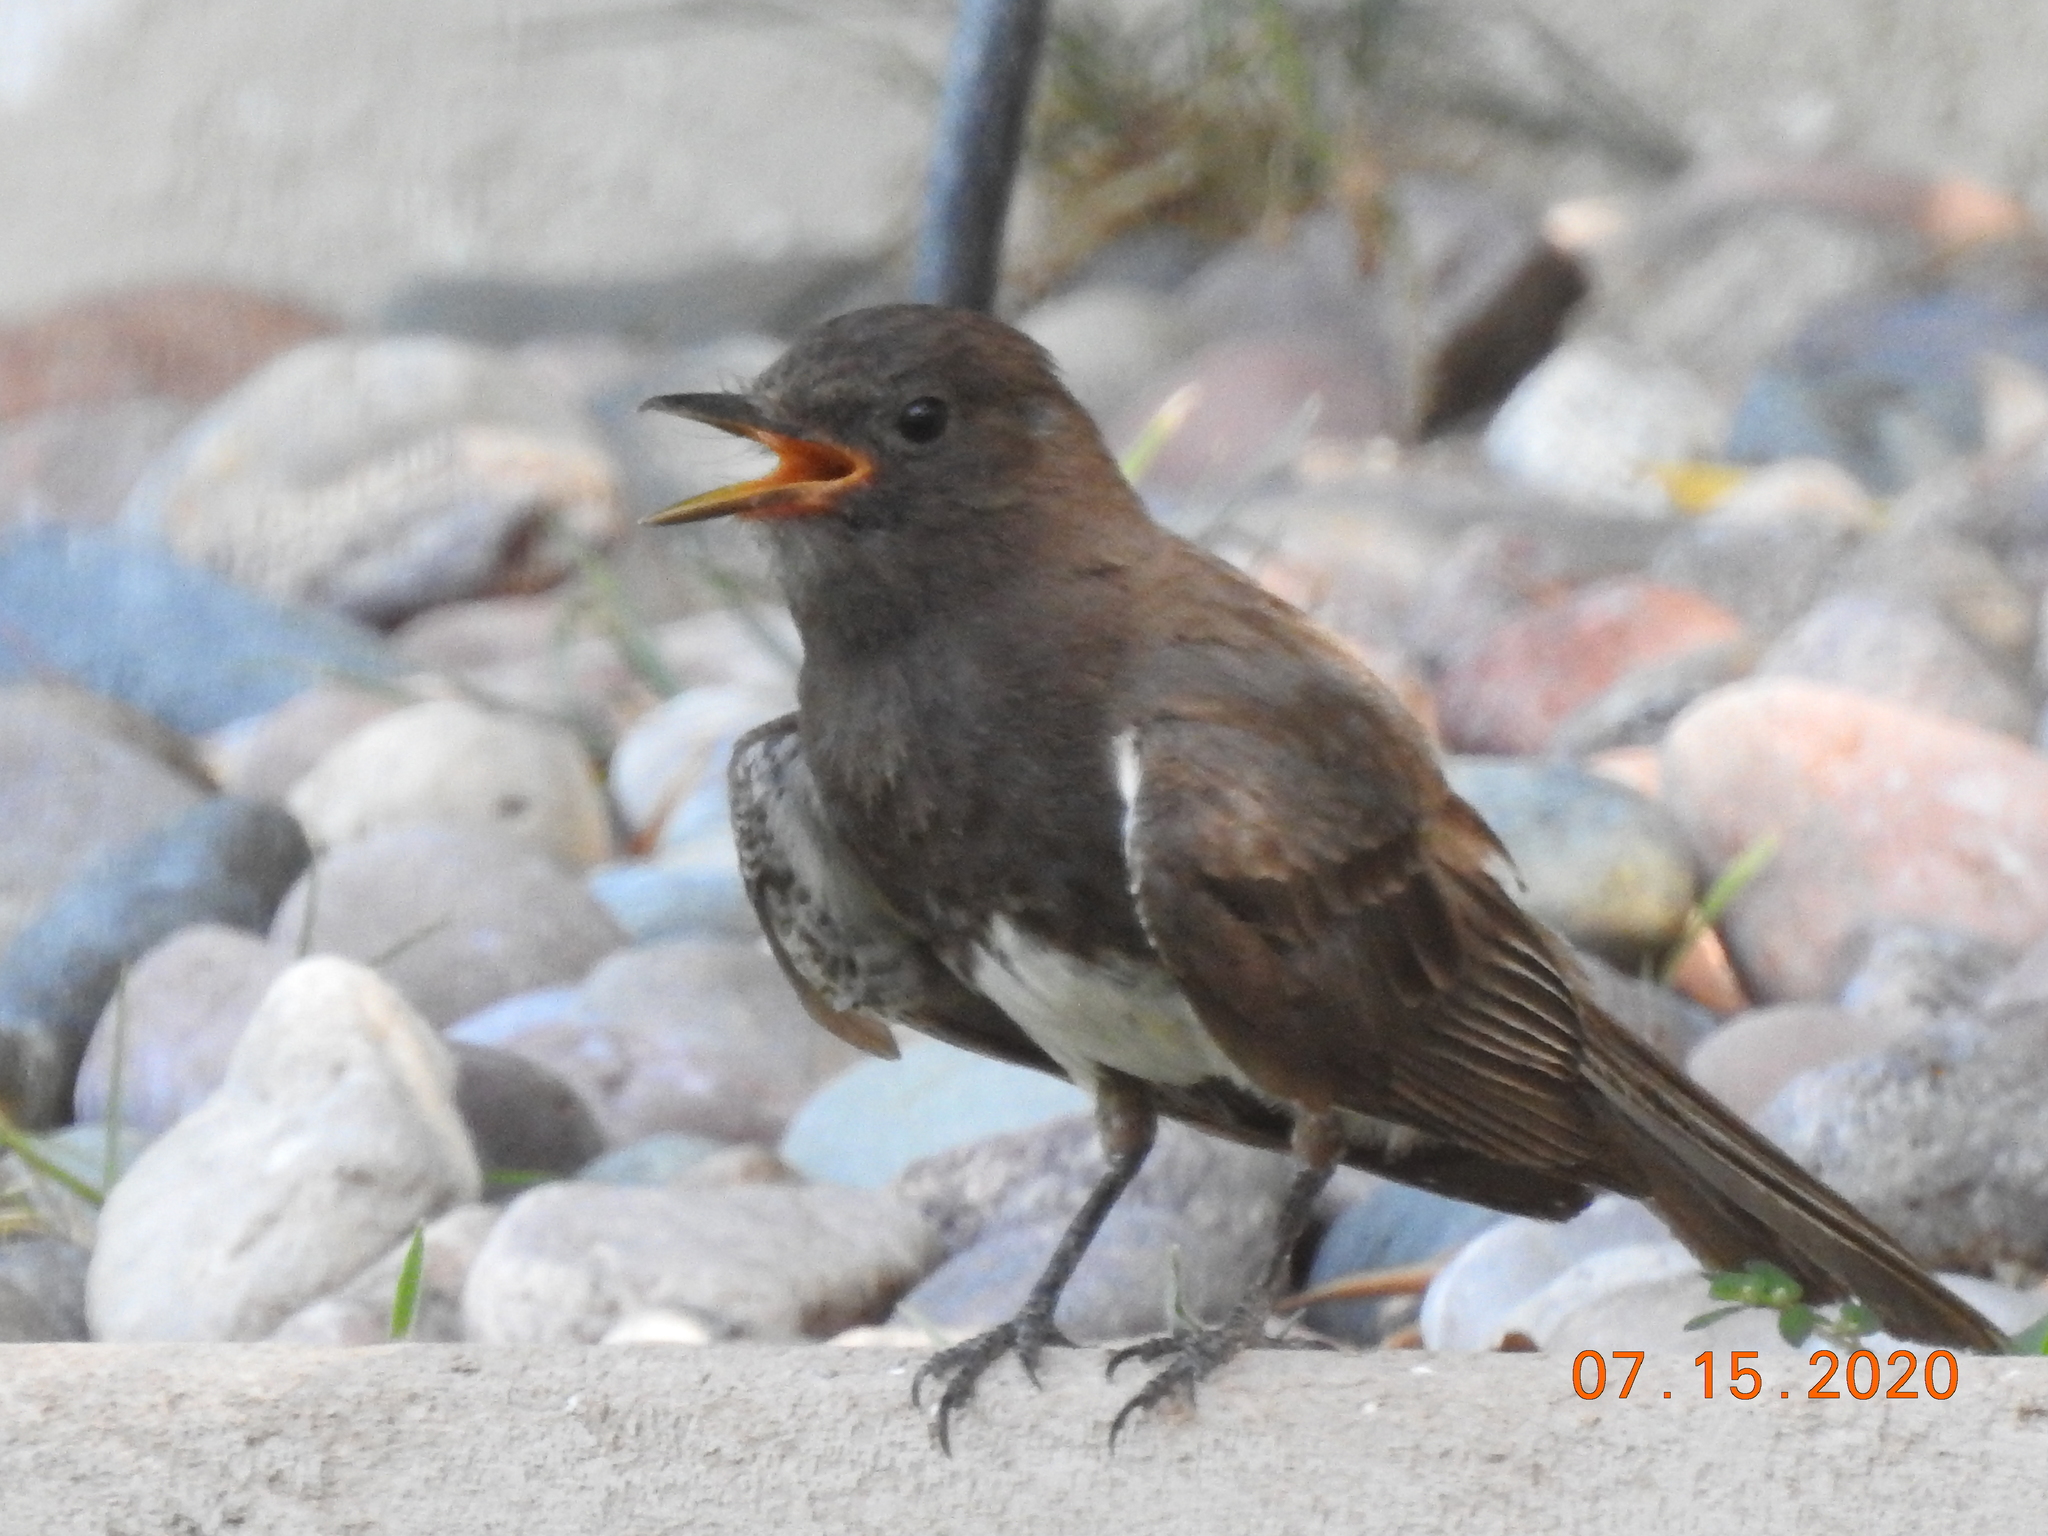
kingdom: Animalia
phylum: Chordata
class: Aves
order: Passeriformes
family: Tyrannidae
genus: Sayornis
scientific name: Sayornis nigricans
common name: Black phoebe
